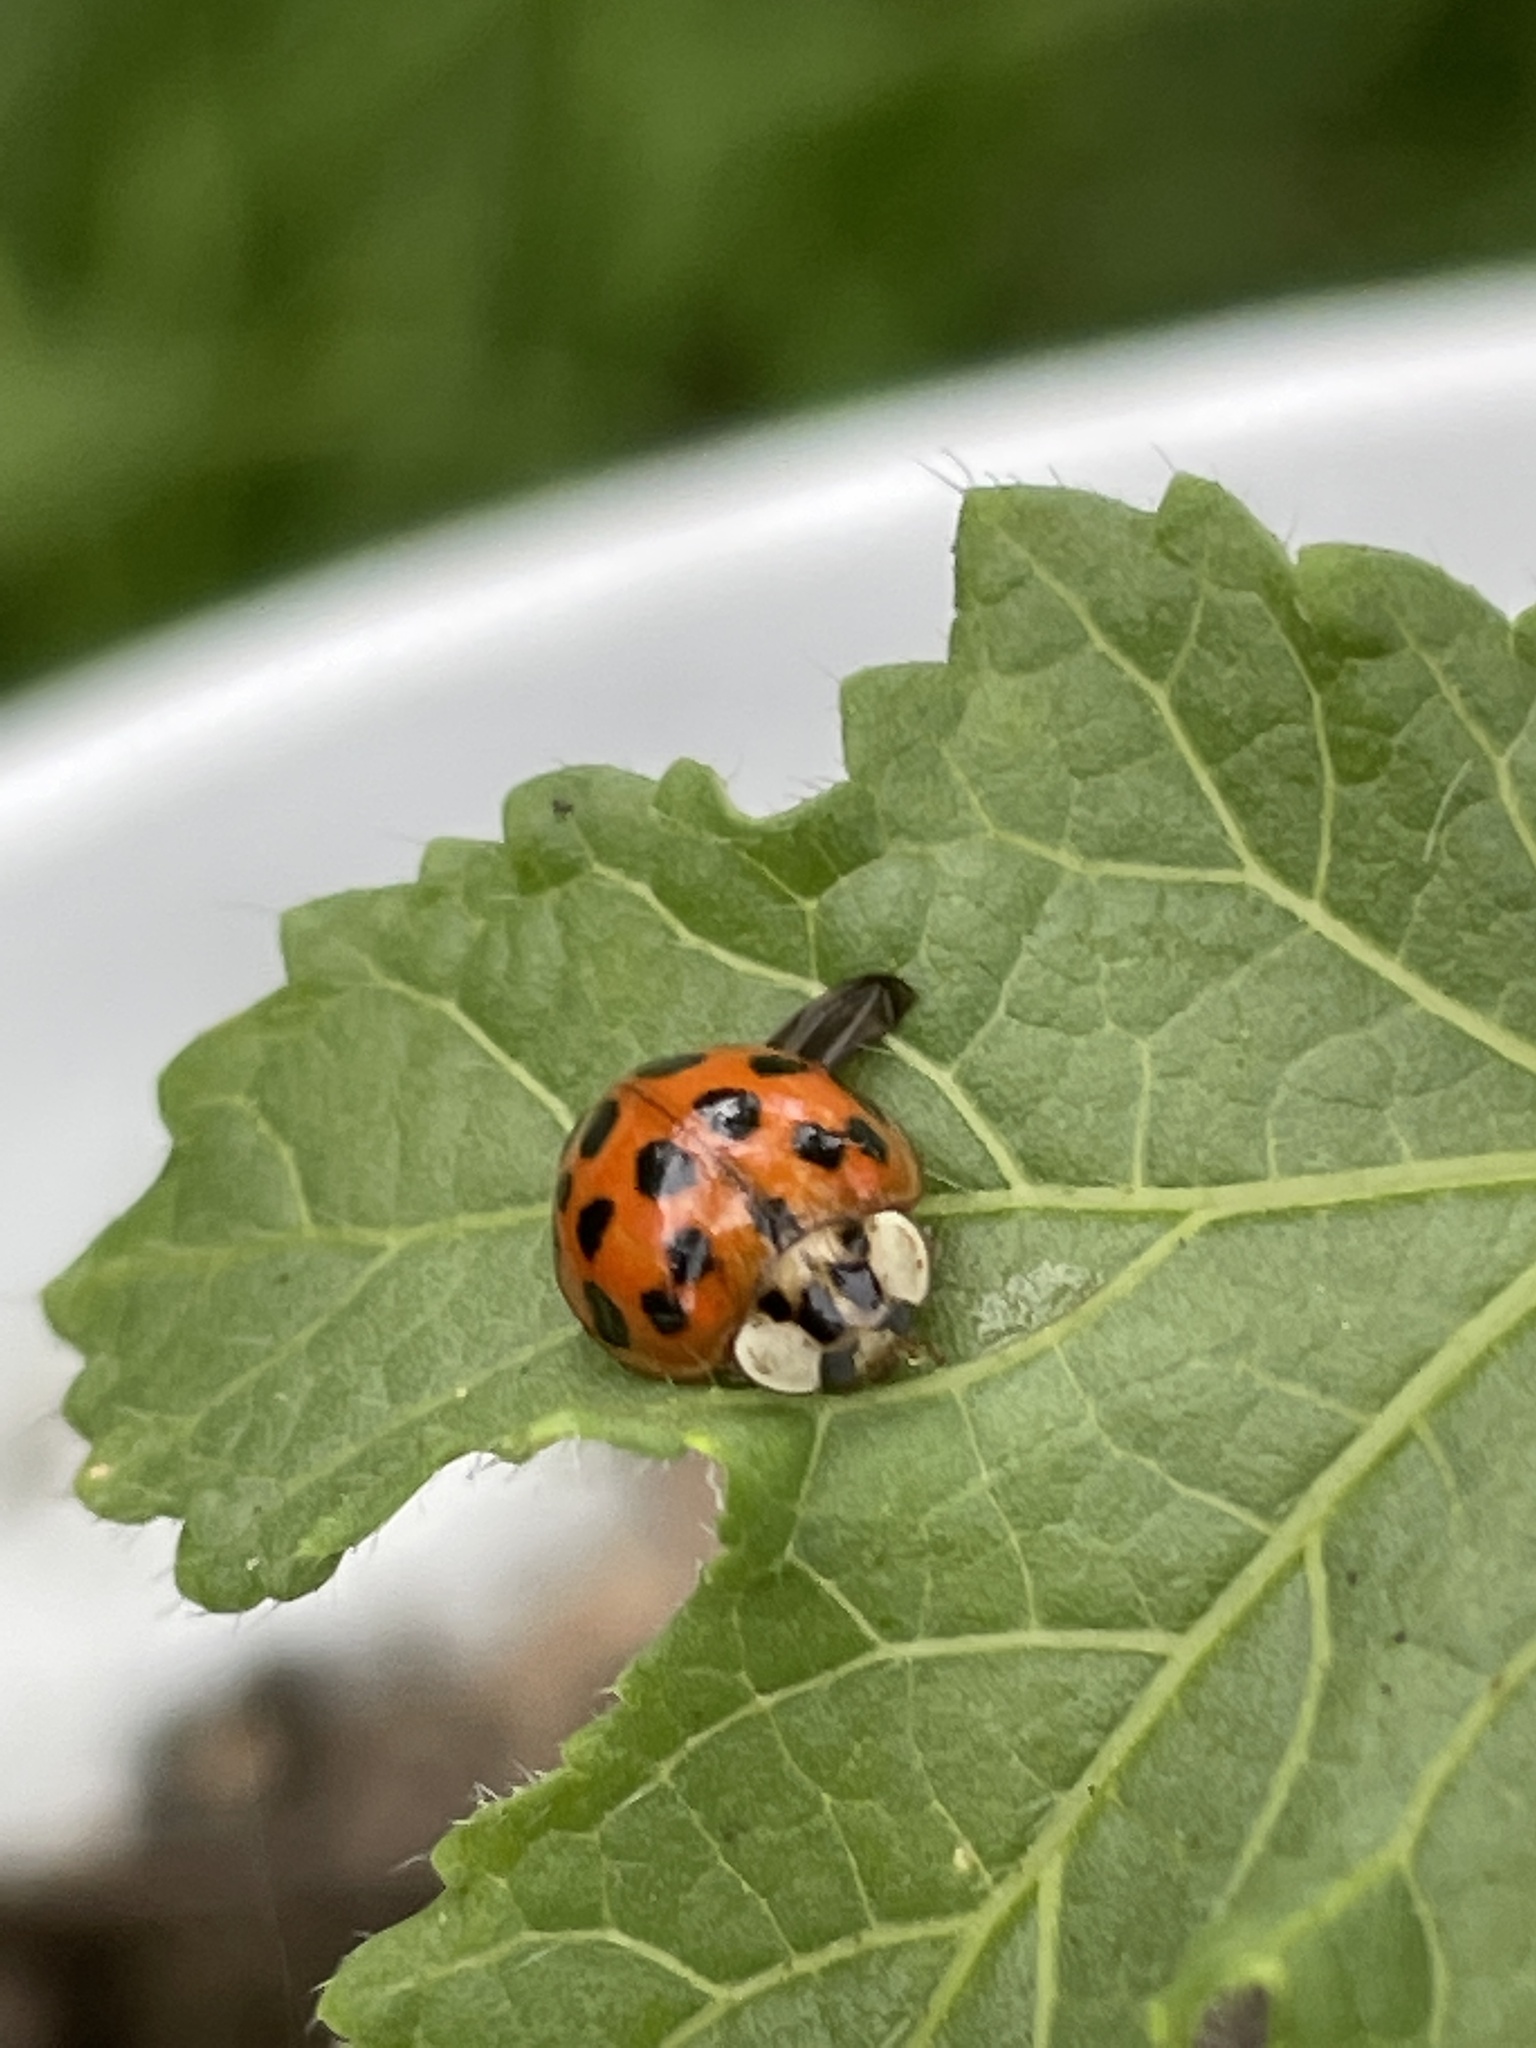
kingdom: Animalia
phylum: Arthropoda
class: Insecta
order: Coleoptera
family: Coccinellidae
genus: Harmonia
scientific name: Harmonia axyridis
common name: Harlequin ladybird
